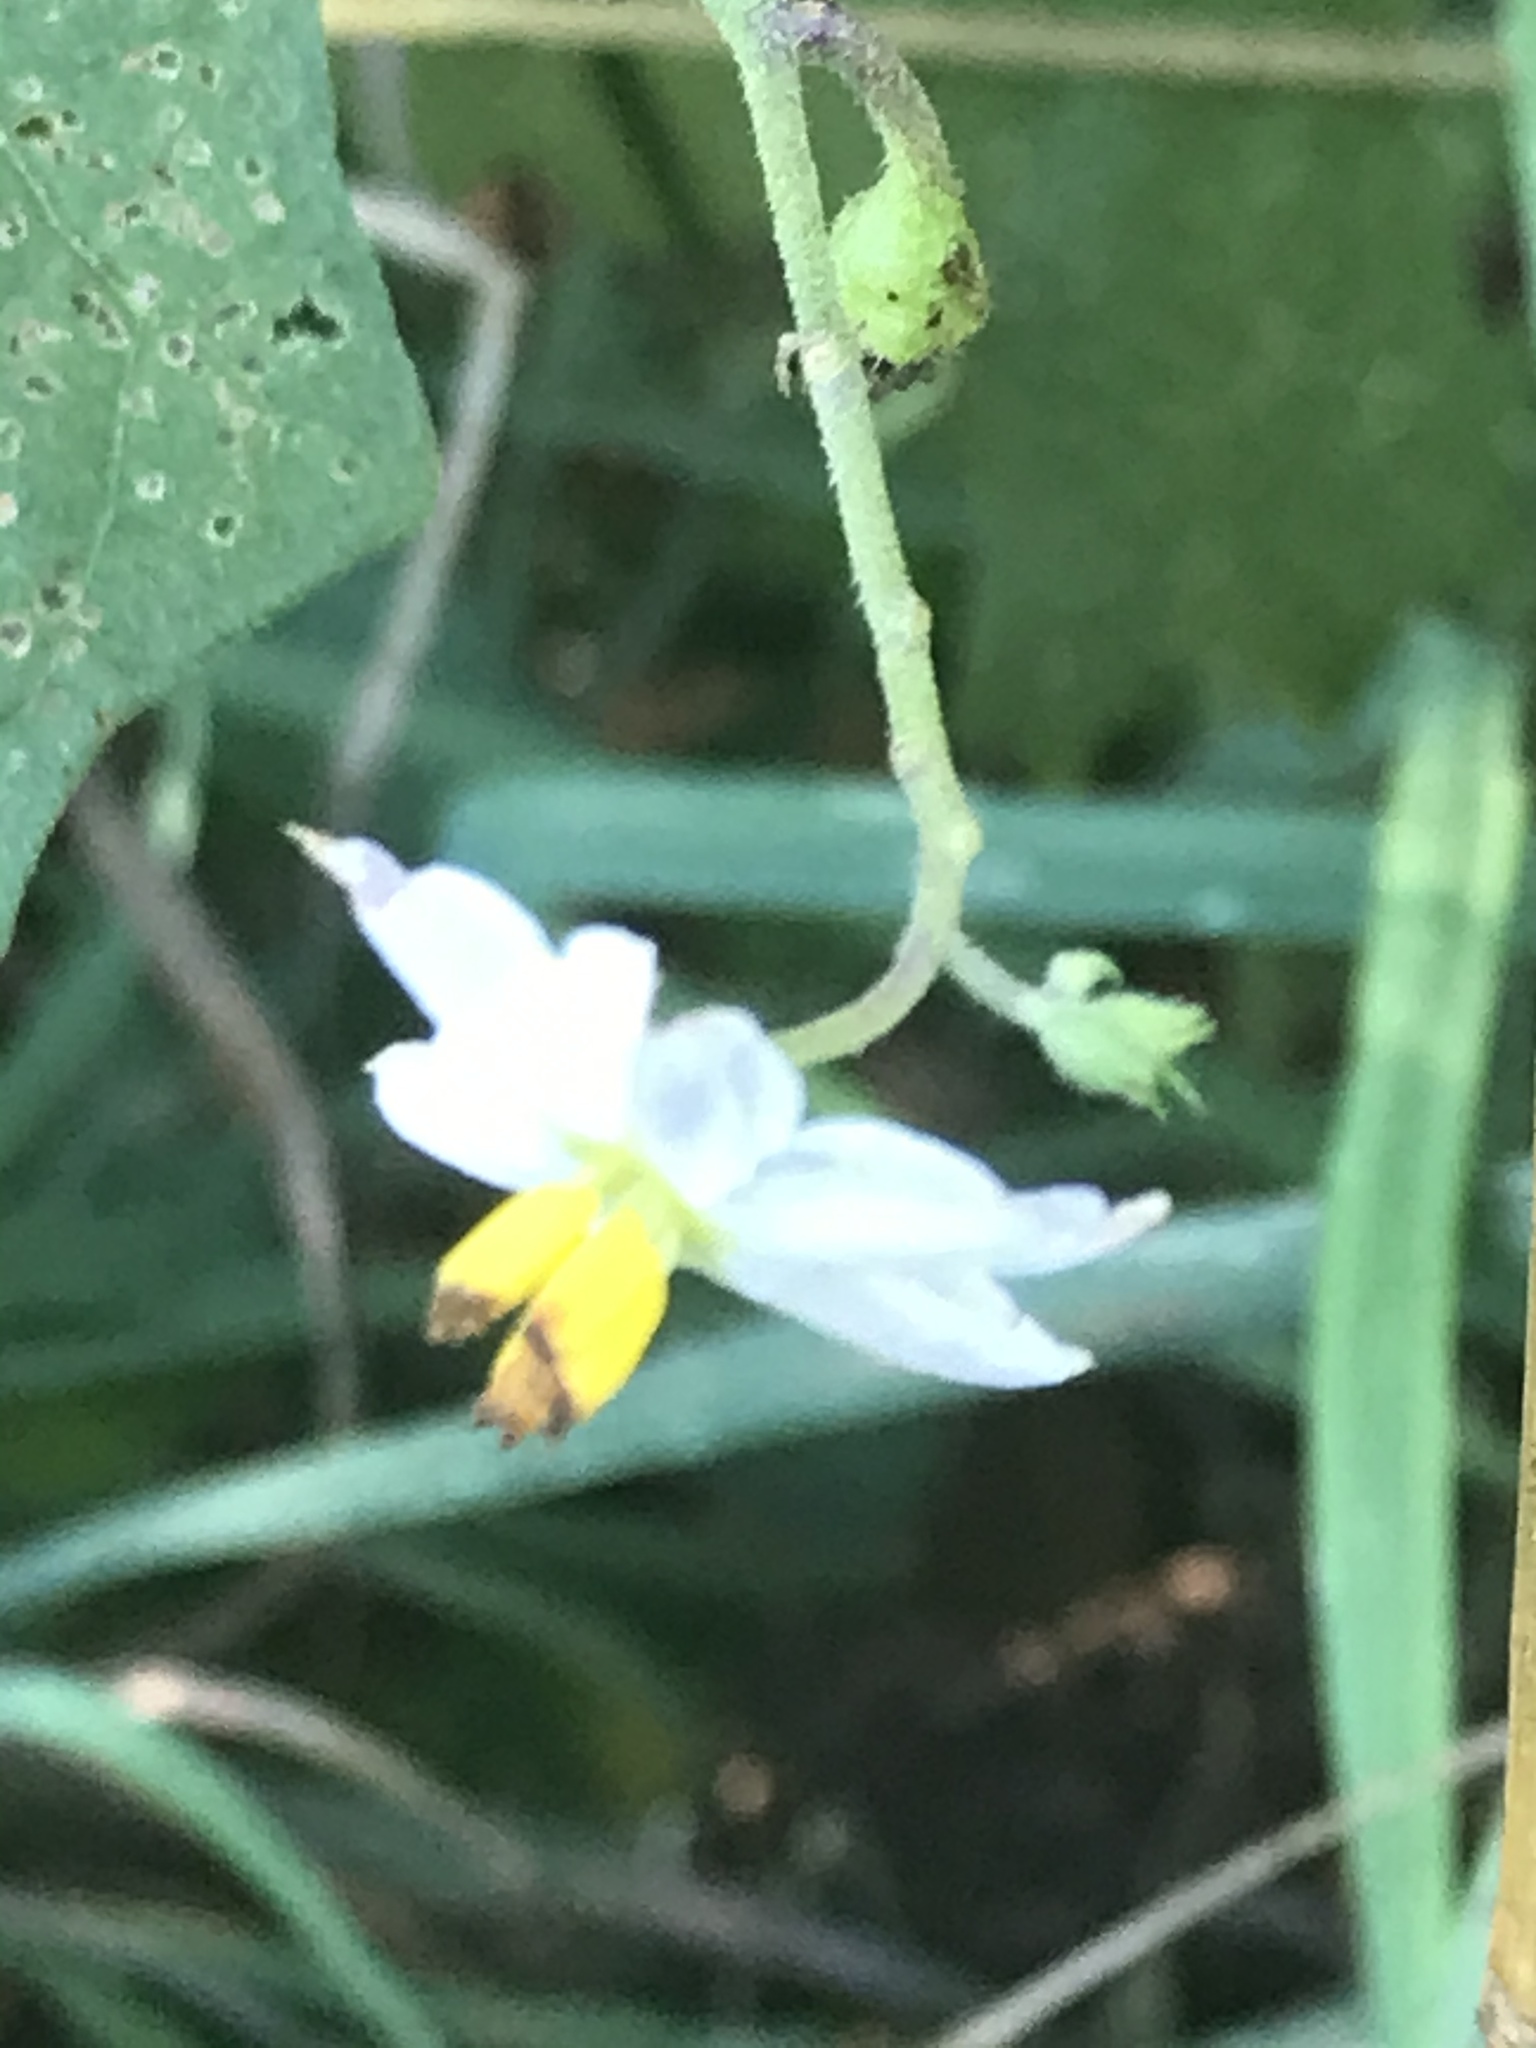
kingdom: Plantae
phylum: Tracheophyta
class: Magnoliopsida
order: Solanales
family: Solanaceae
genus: Solanum
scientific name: Solanum carolinense
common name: Horse-nettle
